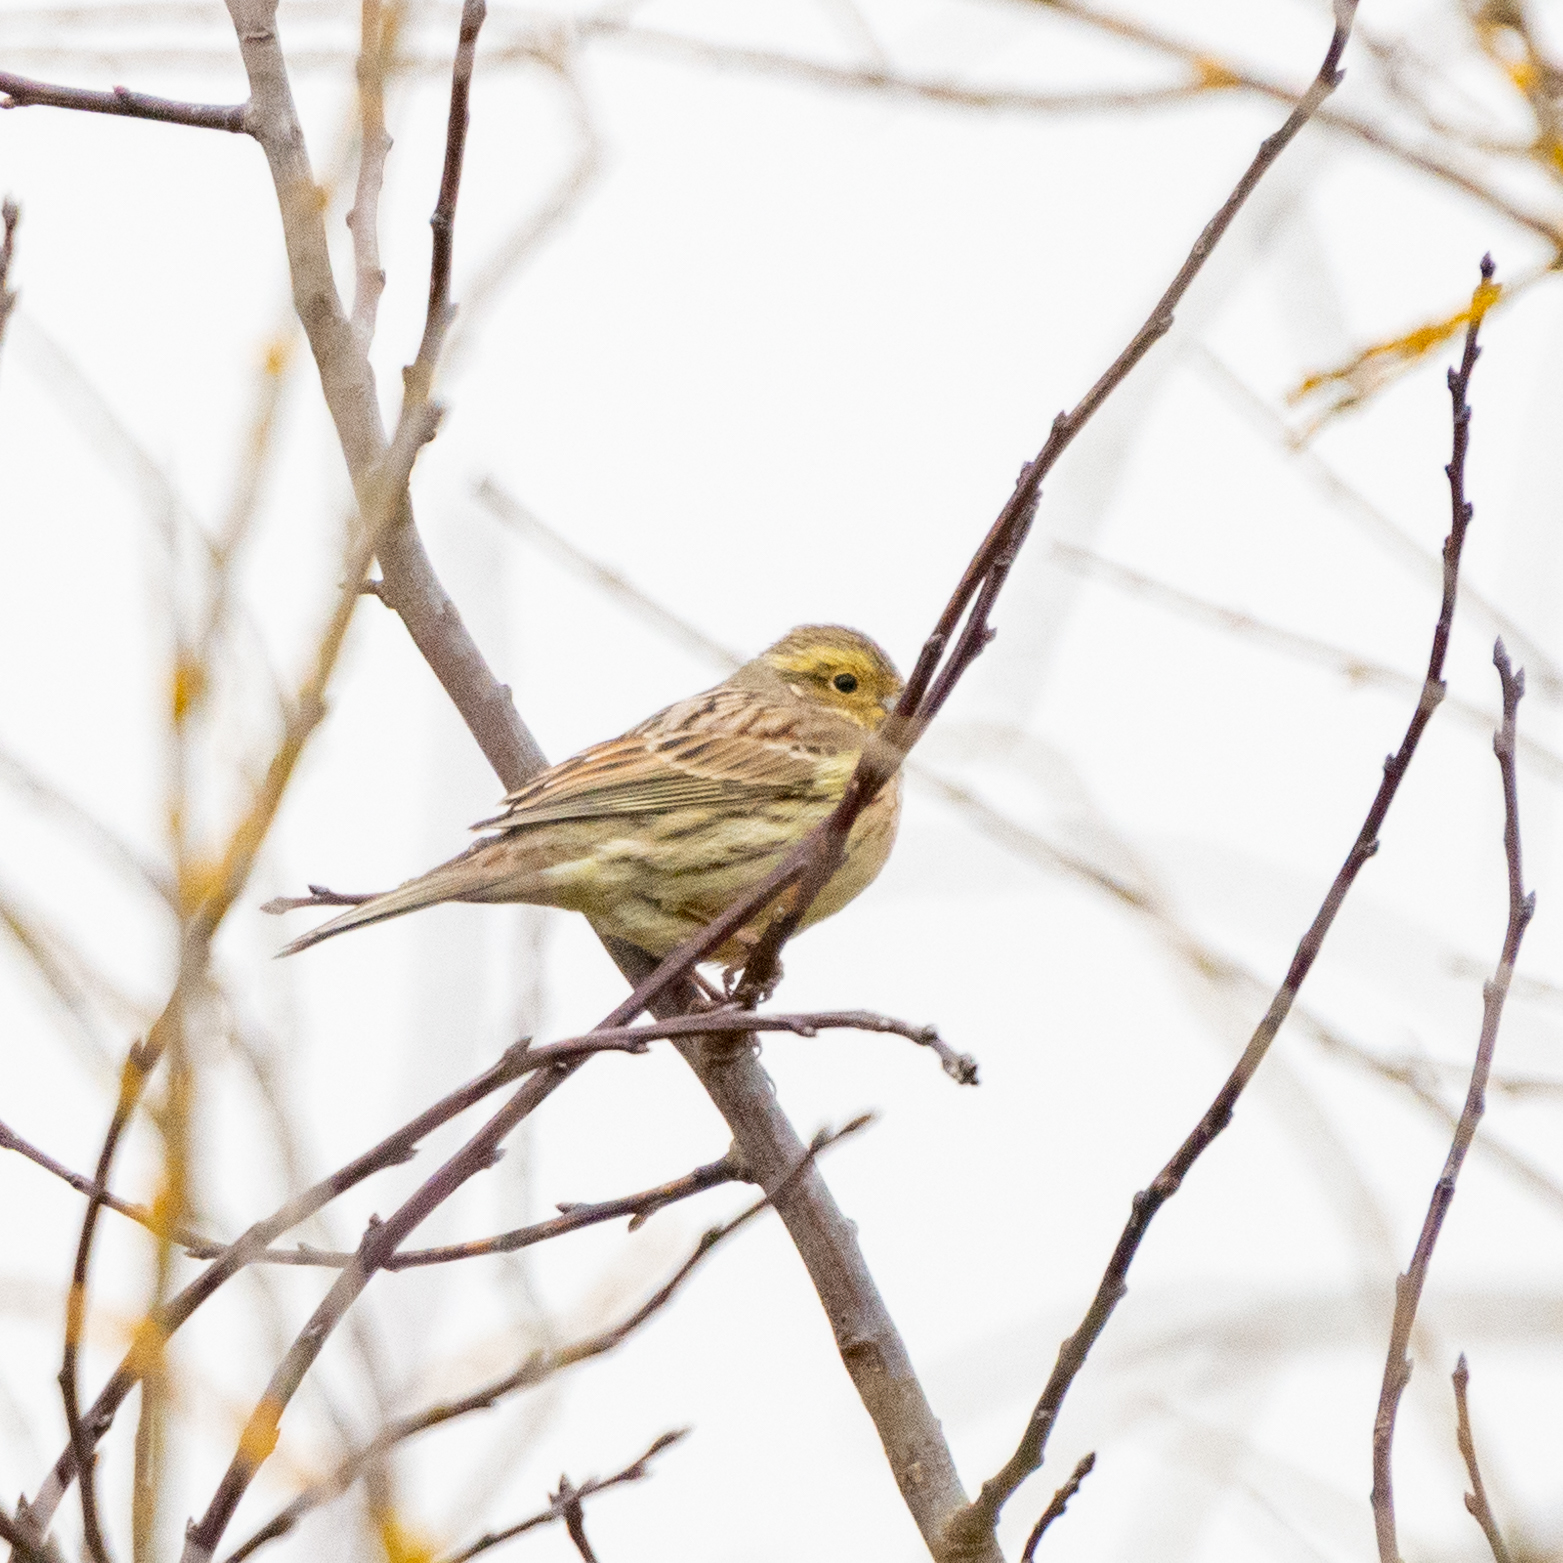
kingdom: Animalia
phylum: Chordata
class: Aves
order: Passeriformes
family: Emberizidae
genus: Emberiza
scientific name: Emberiza cirlus
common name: Cirl bunting
